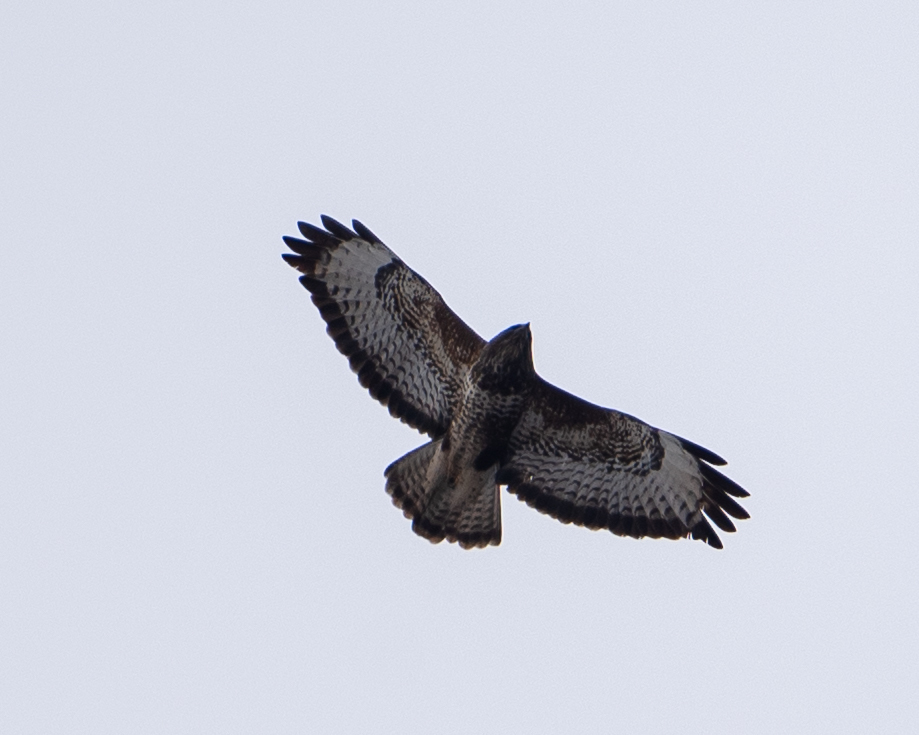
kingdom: Animalia
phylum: Chordata
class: Aves
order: Accipitriformes
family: Accipitridae
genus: Buteo
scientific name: Buteo buteo
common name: Common buzzard
